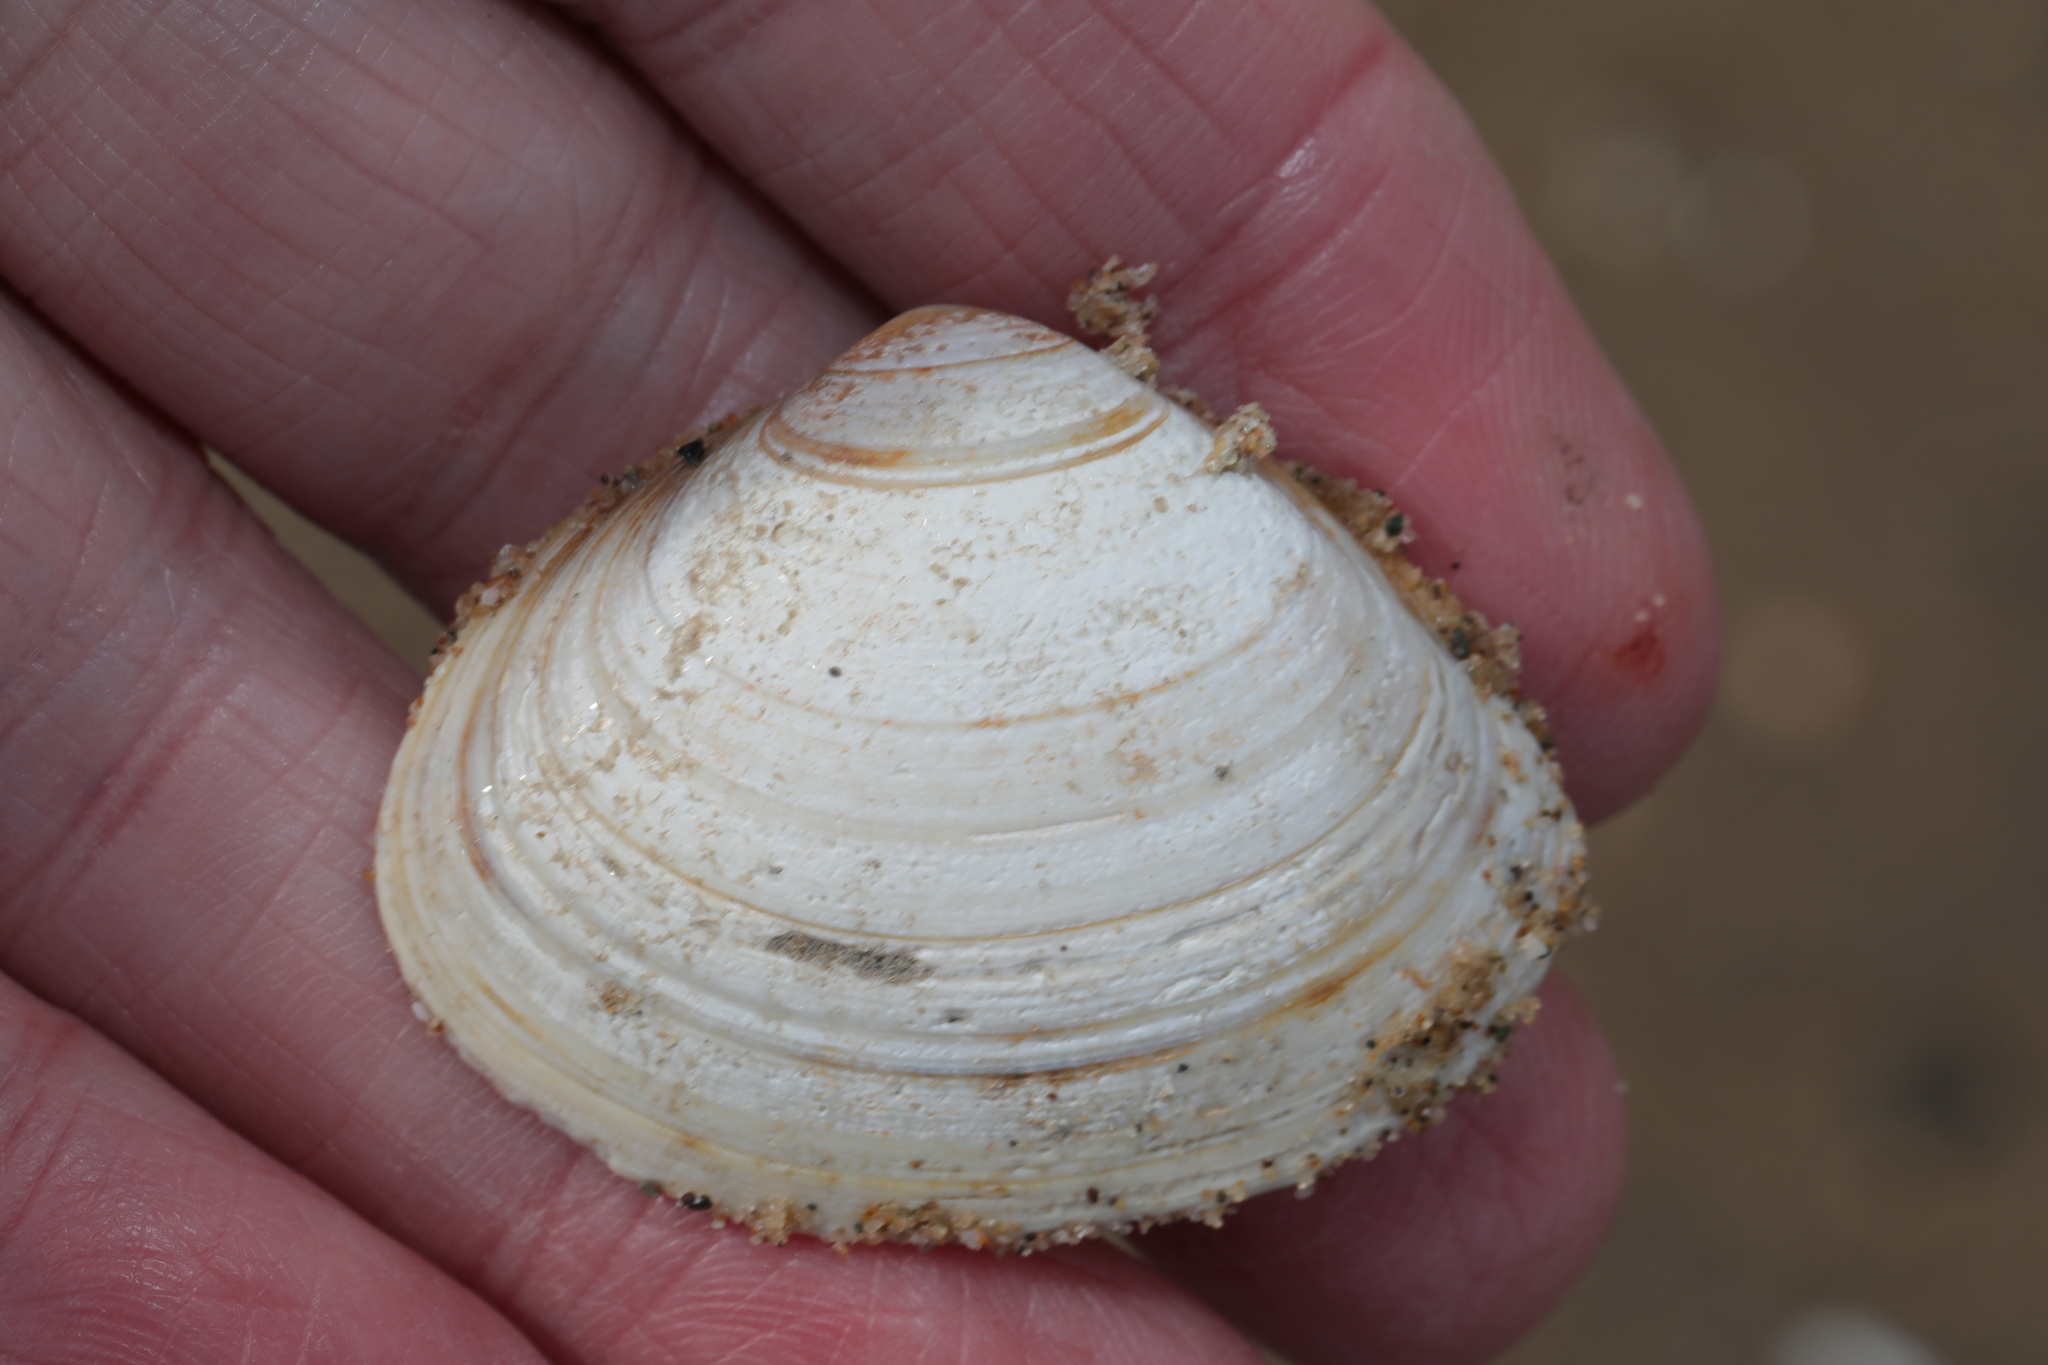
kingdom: Animalia
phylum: Mollusca
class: Bivalvia
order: Venerida
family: Mactridae
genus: Spisula
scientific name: Spisula solida
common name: Thick trough shell
